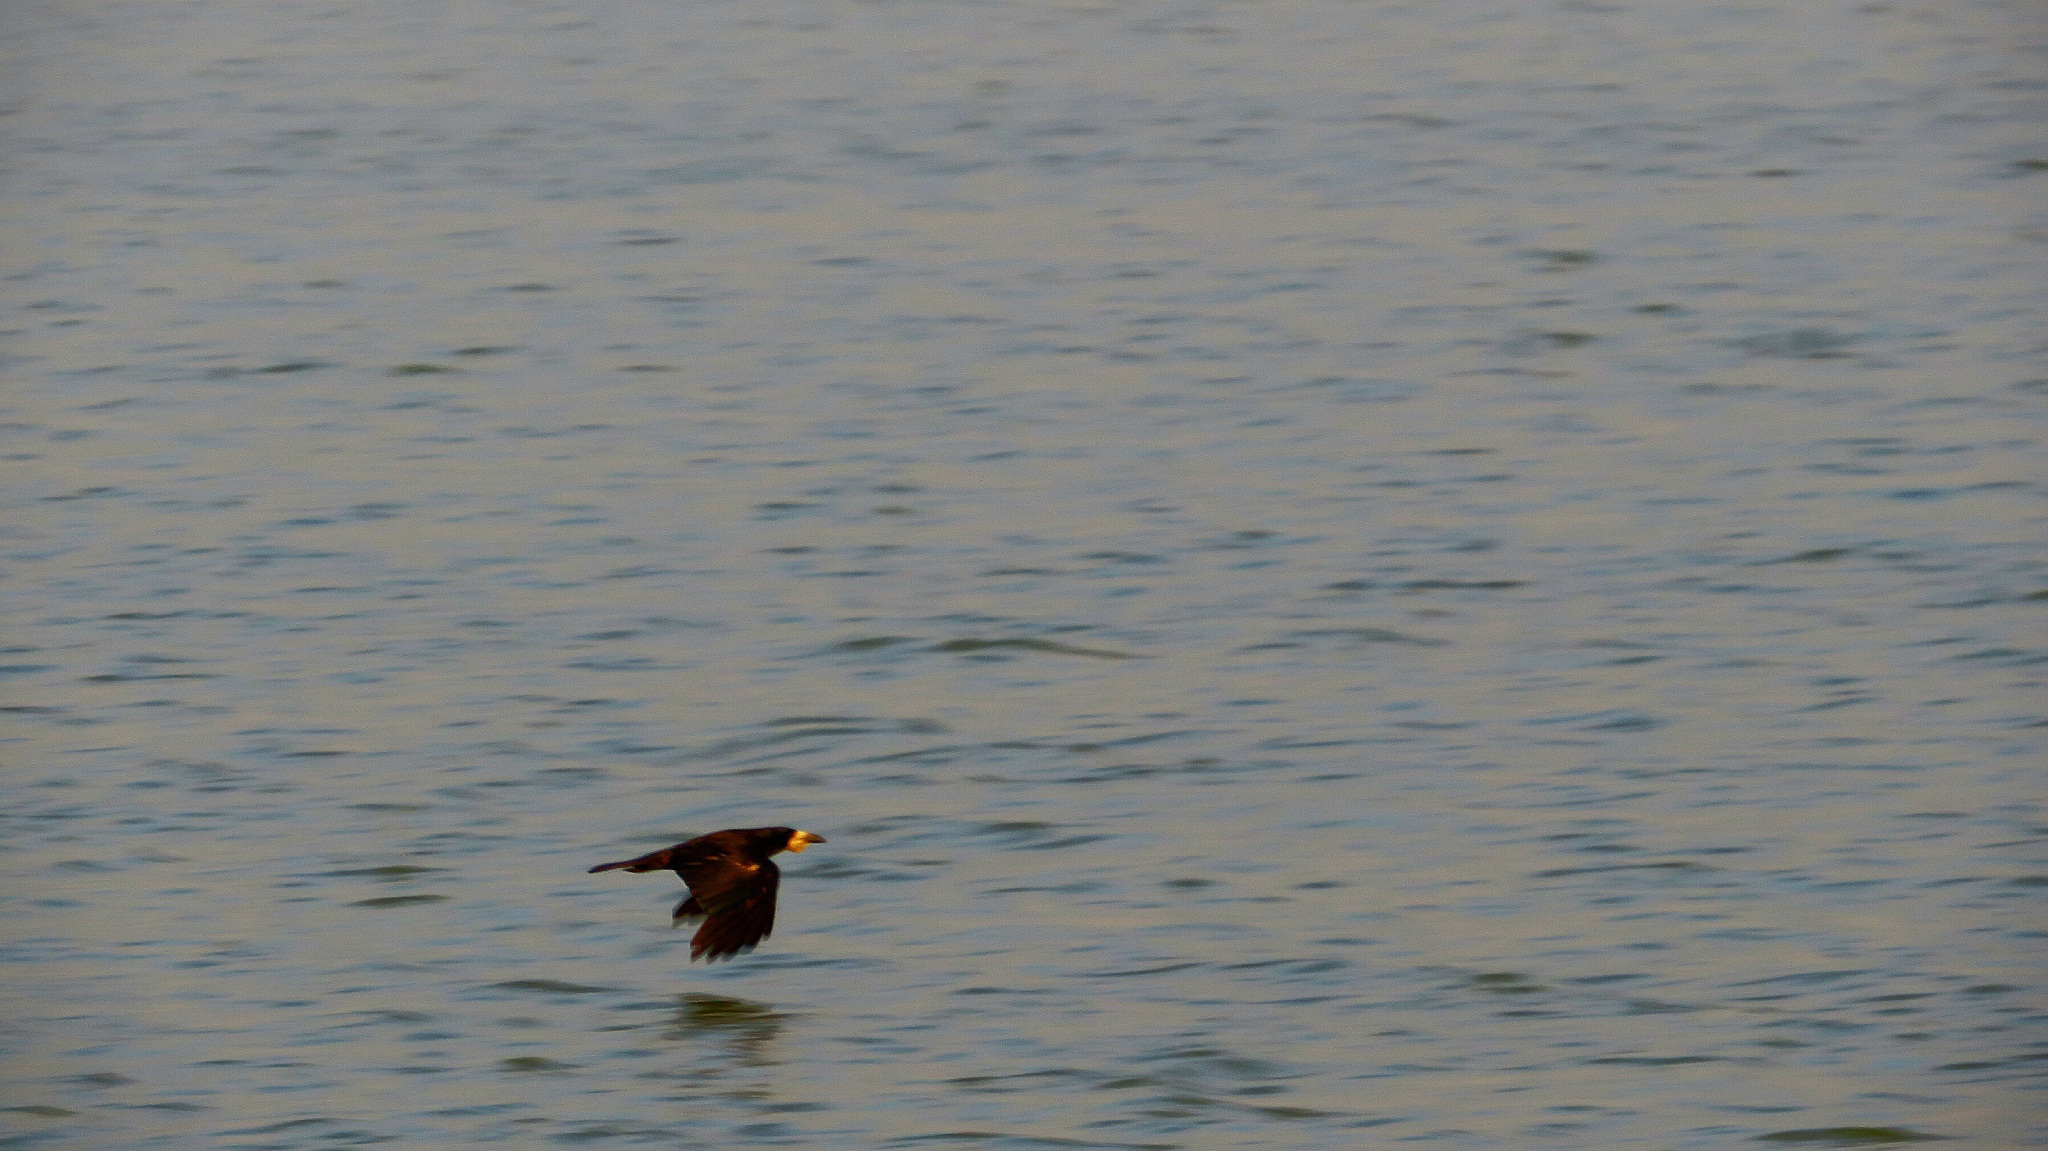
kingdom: Animalia
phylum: Chordata
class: Aves
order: Passeriformes
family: Corvidae
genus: Corvus
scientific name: Corvus frugilegus
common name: Rook
